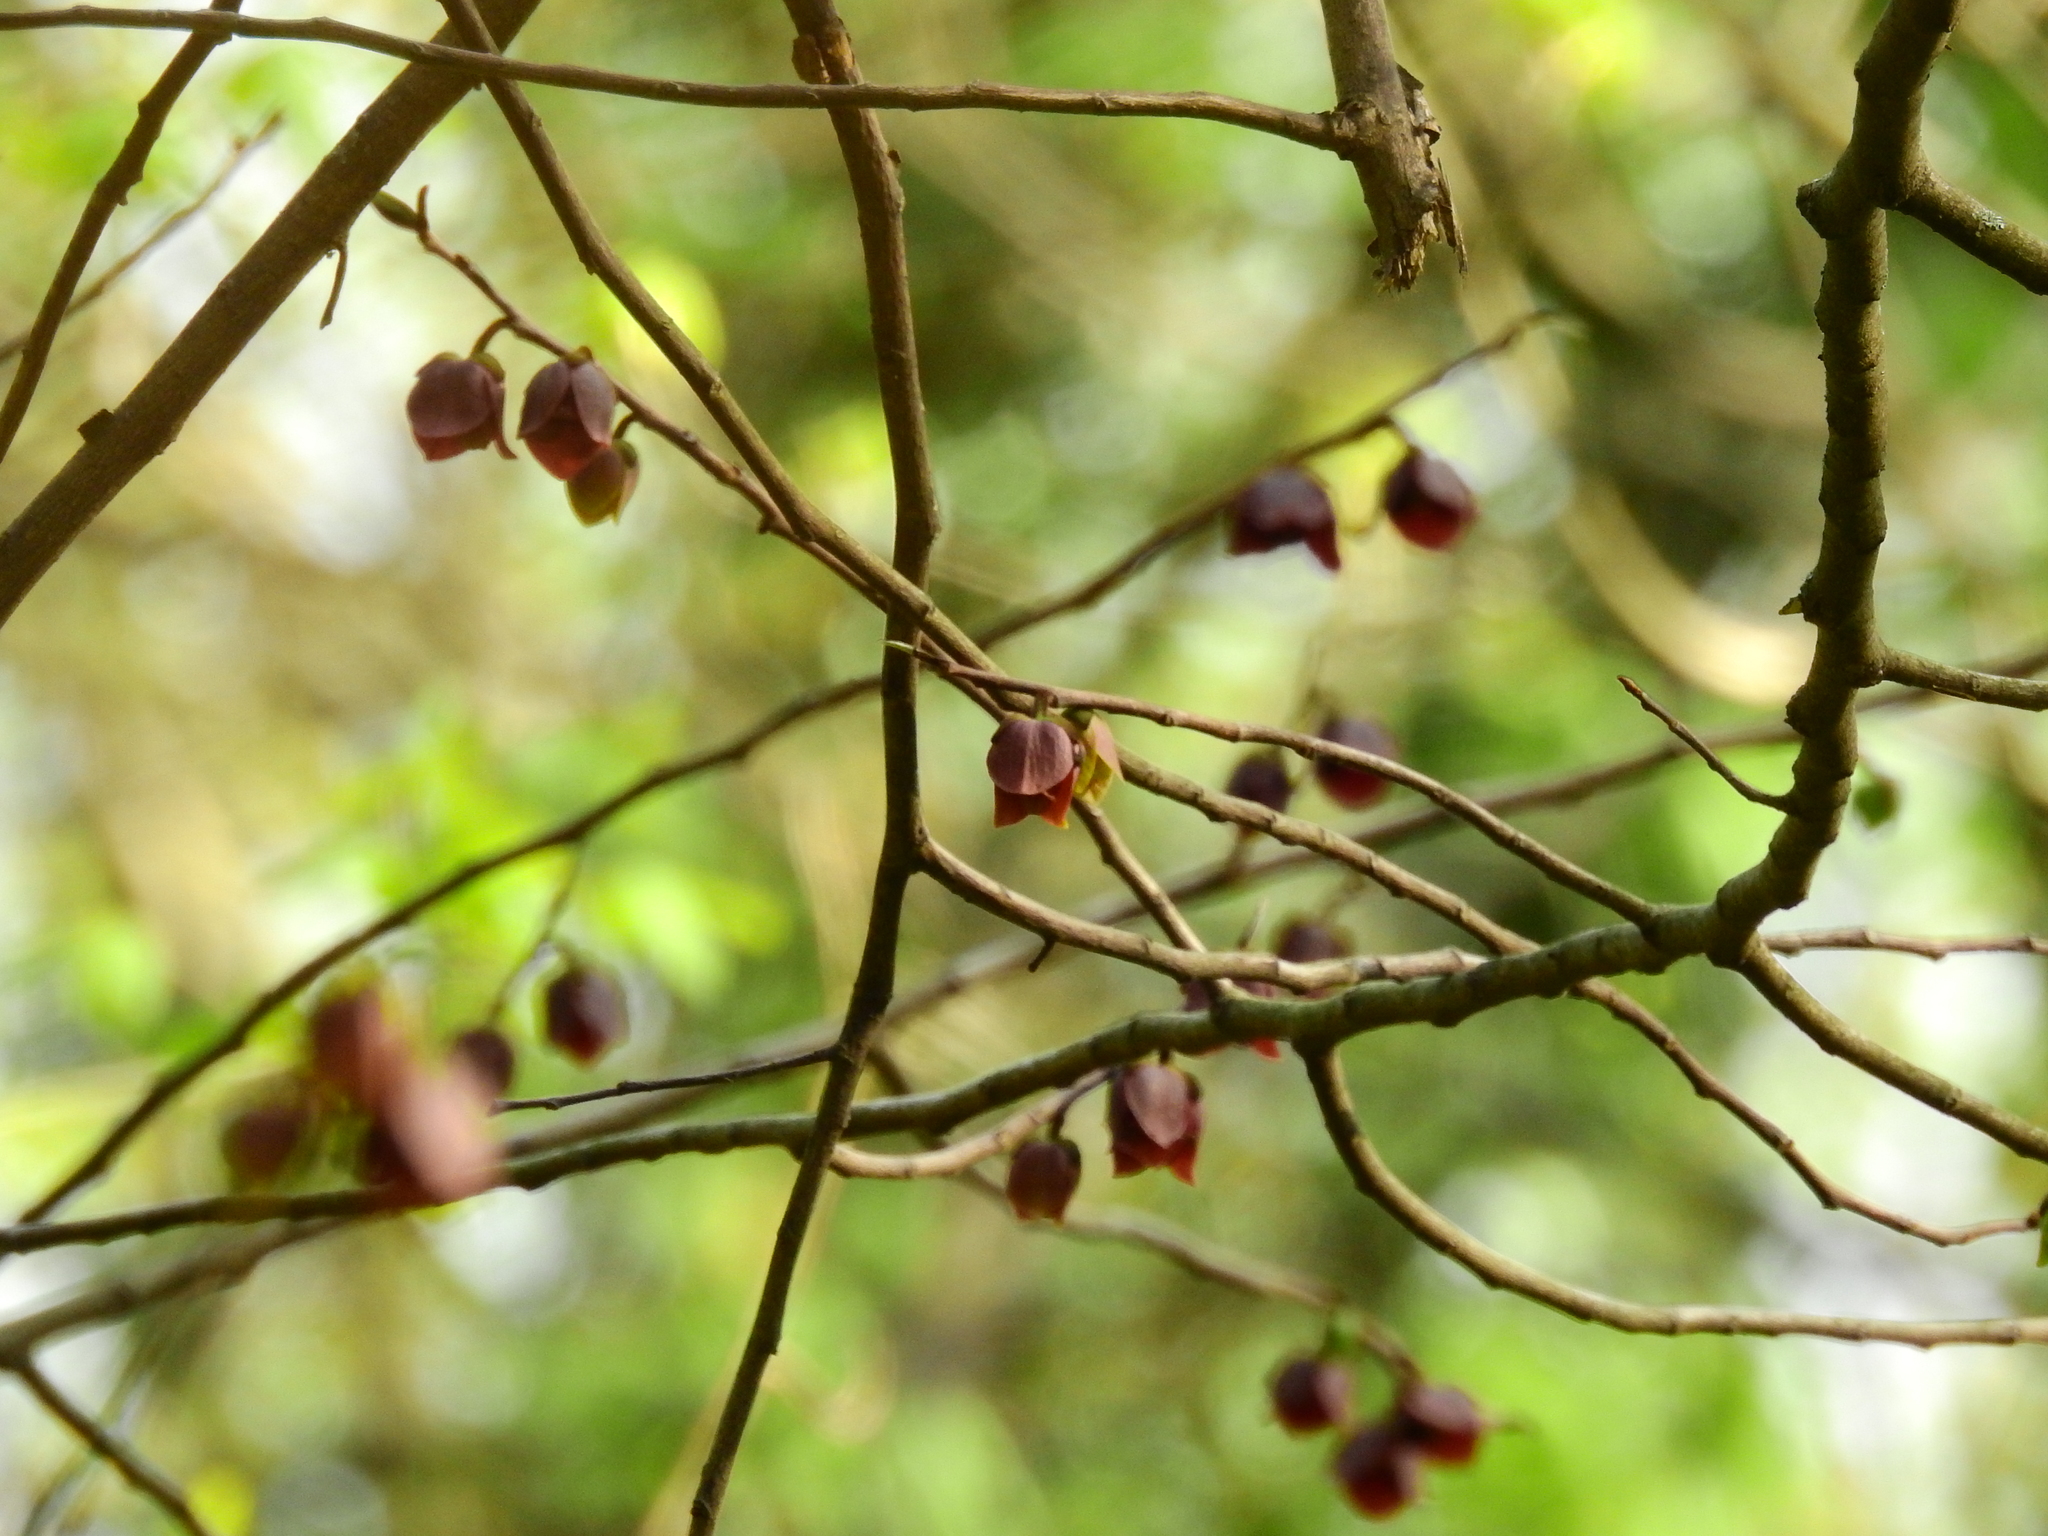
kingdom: Plantae
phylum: Tracheophyta
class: Magnoliopsida
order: Magnoliales
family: Annonaceae
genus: Asimina
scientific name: Asimina triloba
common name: Dog-banana
